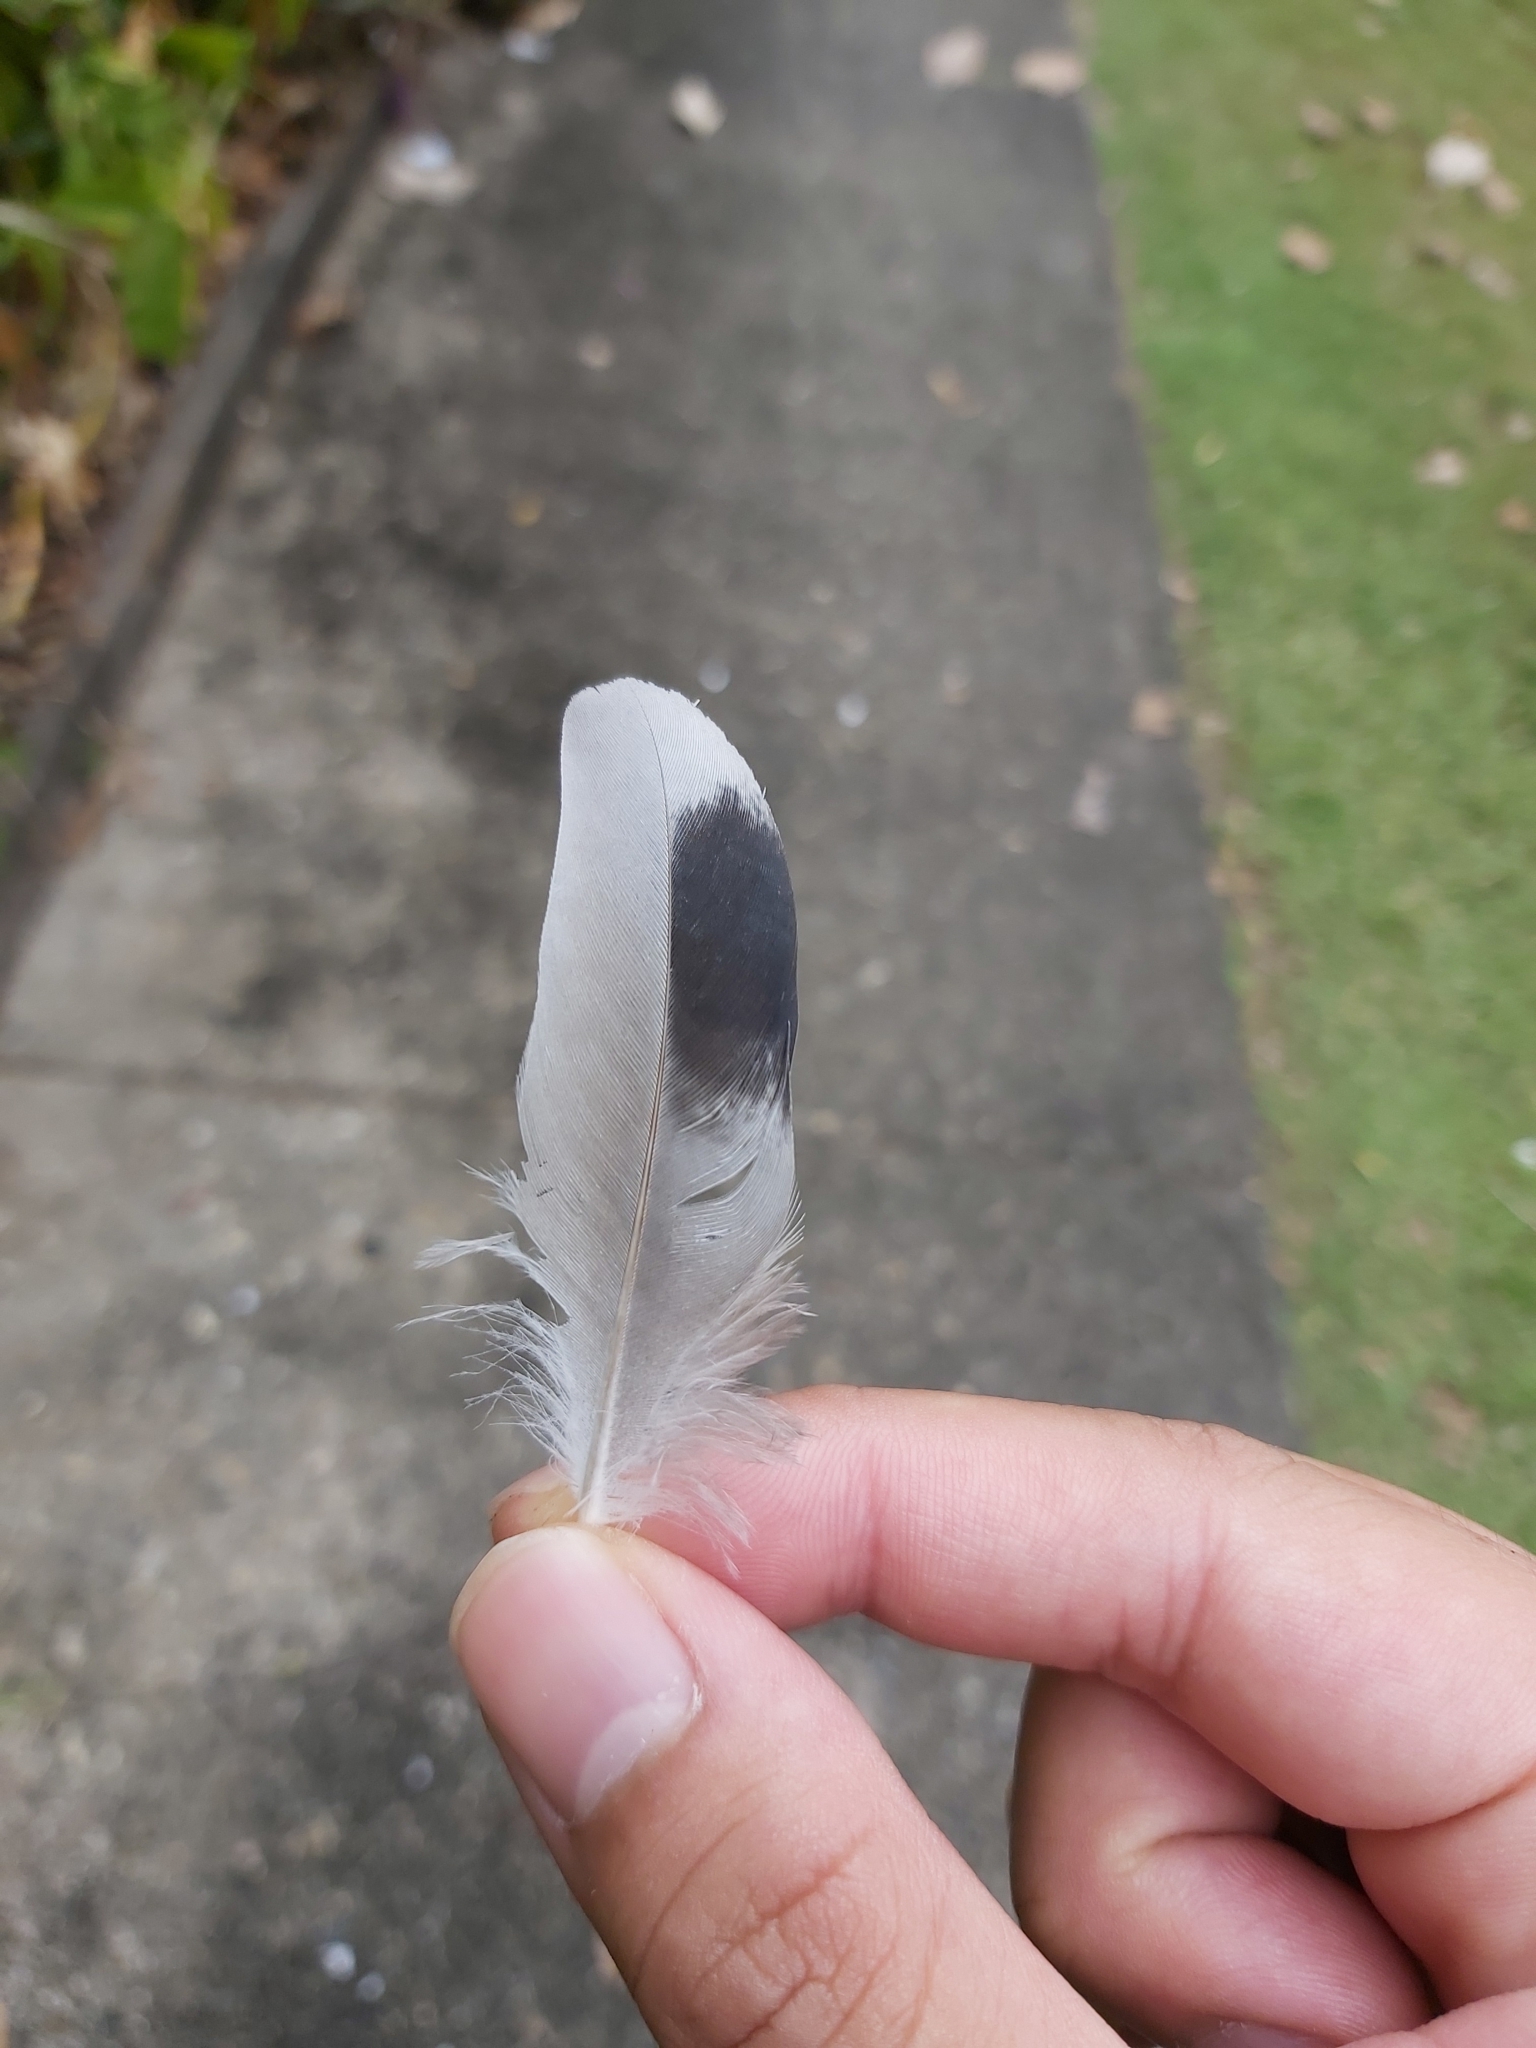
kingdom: Animalia
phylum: Chordata
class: Aves
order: Columbiformes
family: Columbidae
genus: Columba
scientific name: Columba livia
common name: Rock pigeon
